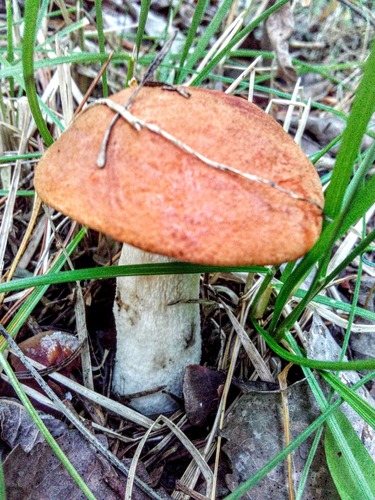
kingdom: Fungi
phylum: Basidiomycota
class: Agaricomycetes
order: Boletales
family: Boletaceae
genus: Leccinum
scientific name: Leccinum albostipitatum
